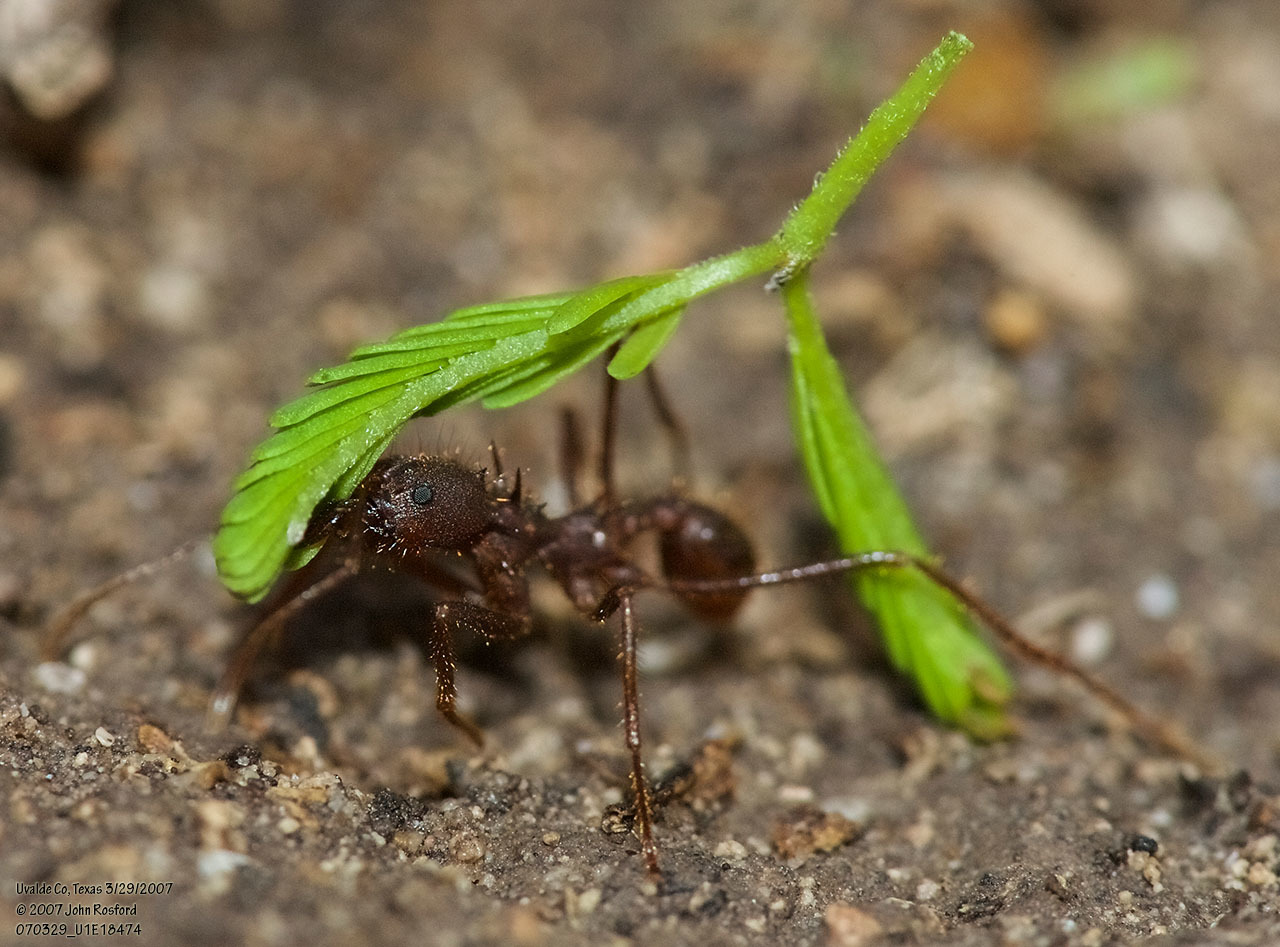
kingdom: Animalia
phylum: Arthropoda
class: Insecta
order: Hymenoptera
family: Formicidae
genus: Atta
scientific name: Atta texana
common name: Texas leafcutting ant
